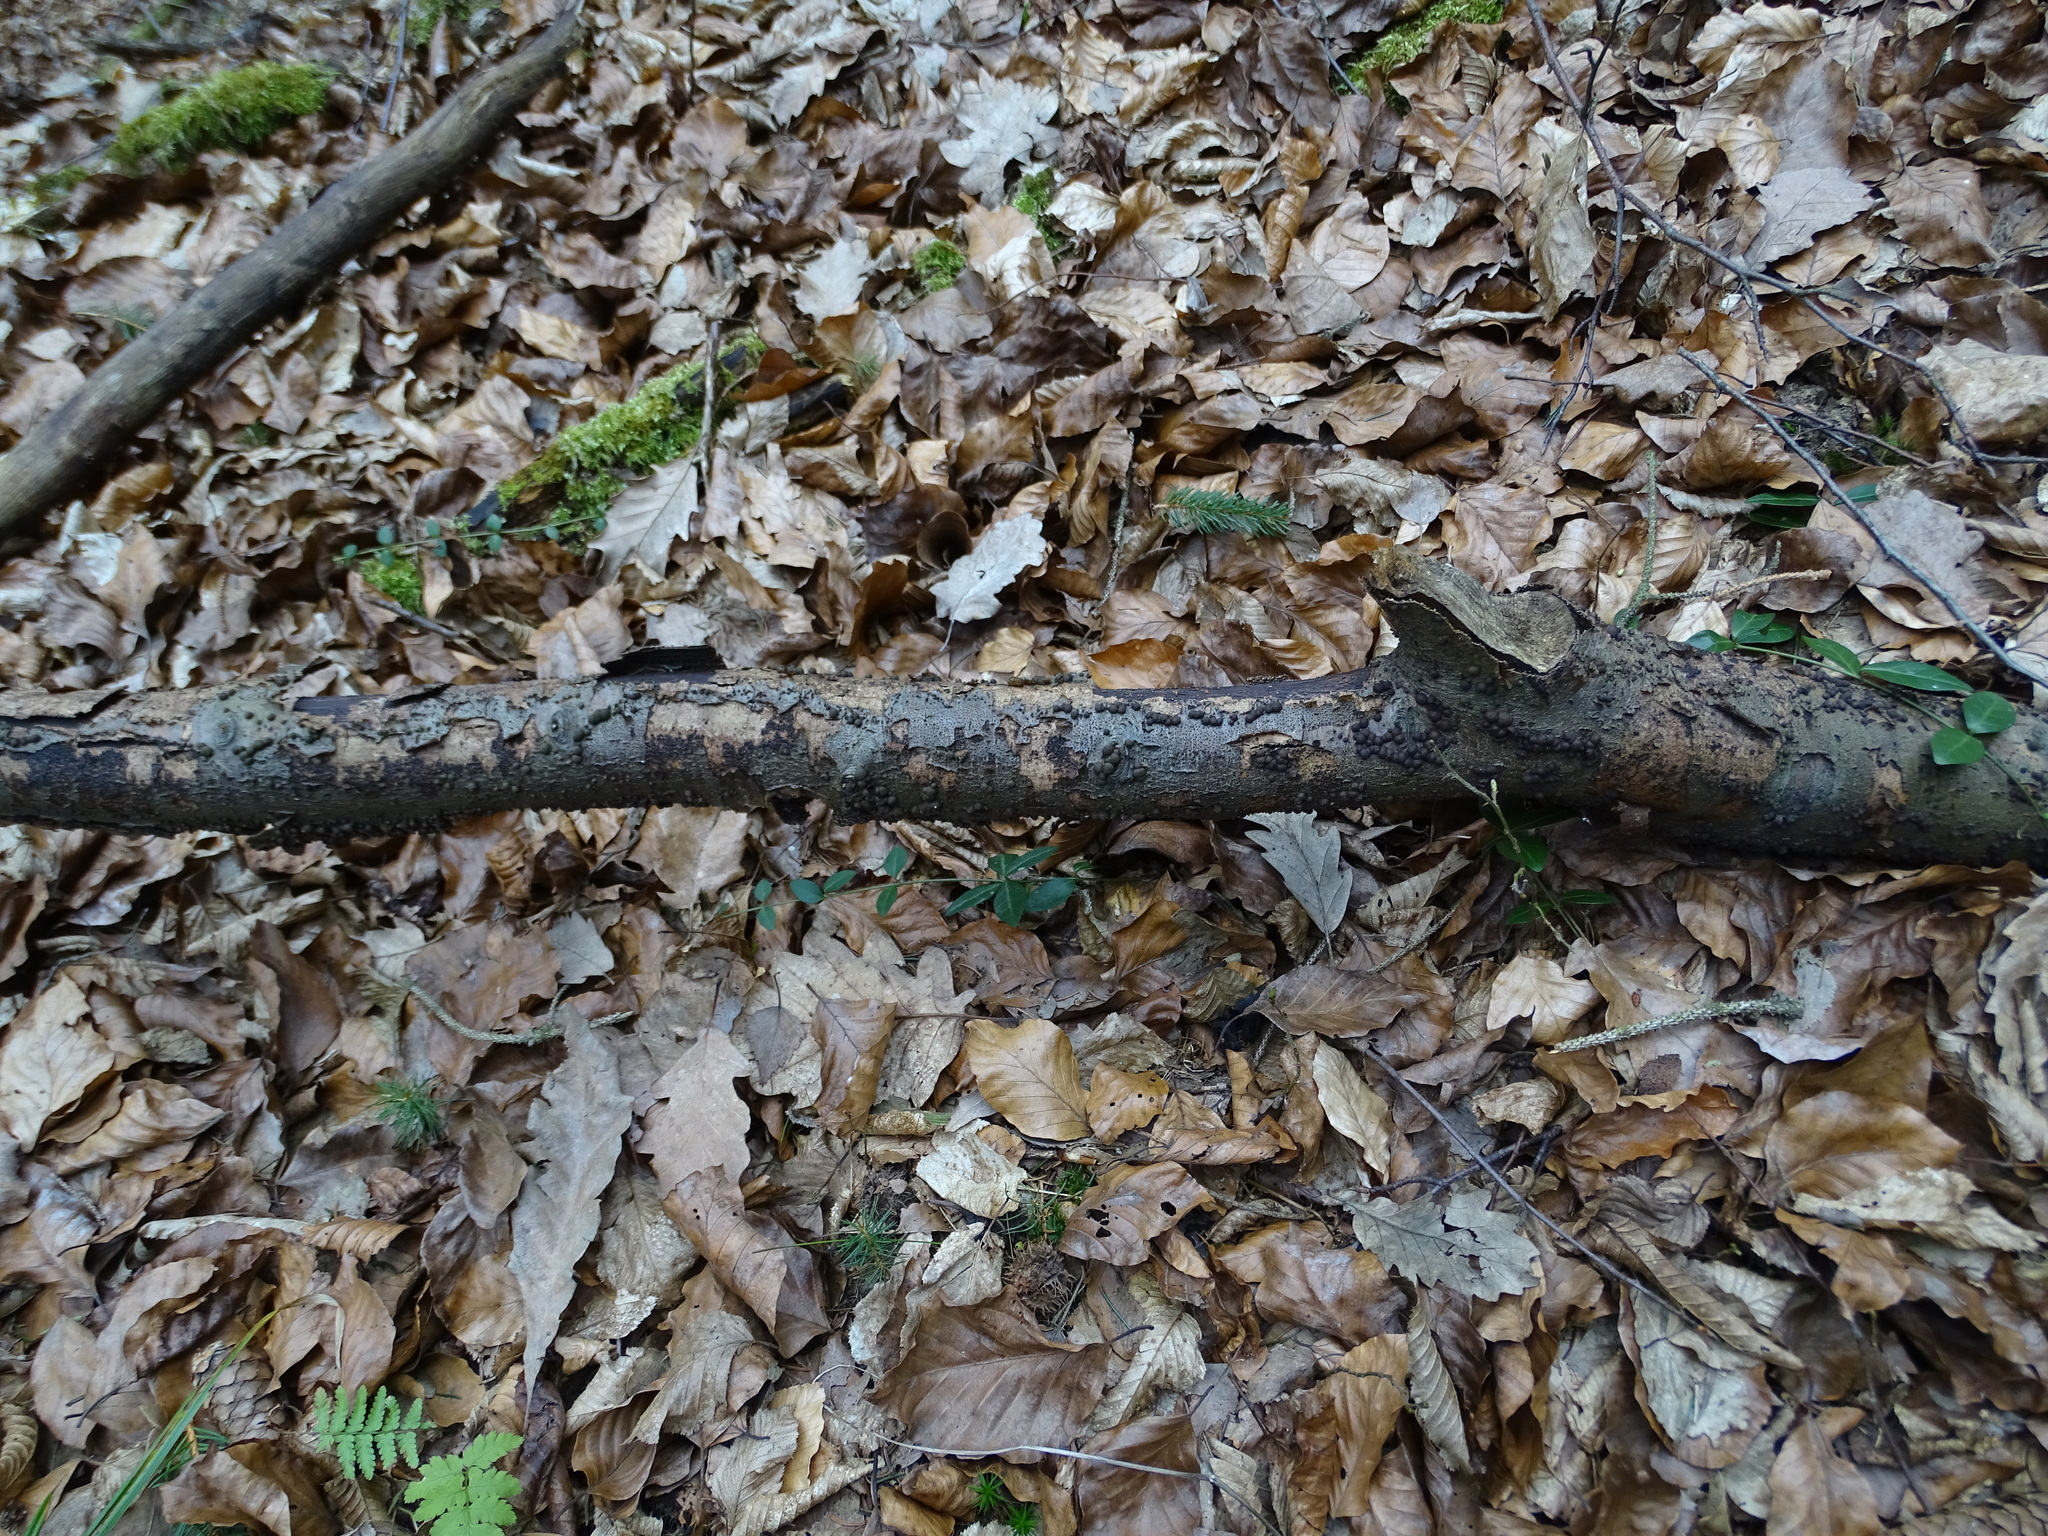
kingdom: Fungi
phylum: Ascomycota
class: Sordariomycetes
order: Xylariales
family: Hypoxylaceae
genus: Hypoxylon
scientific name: Hypoxylon fragiforme
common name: Beech woodwart
